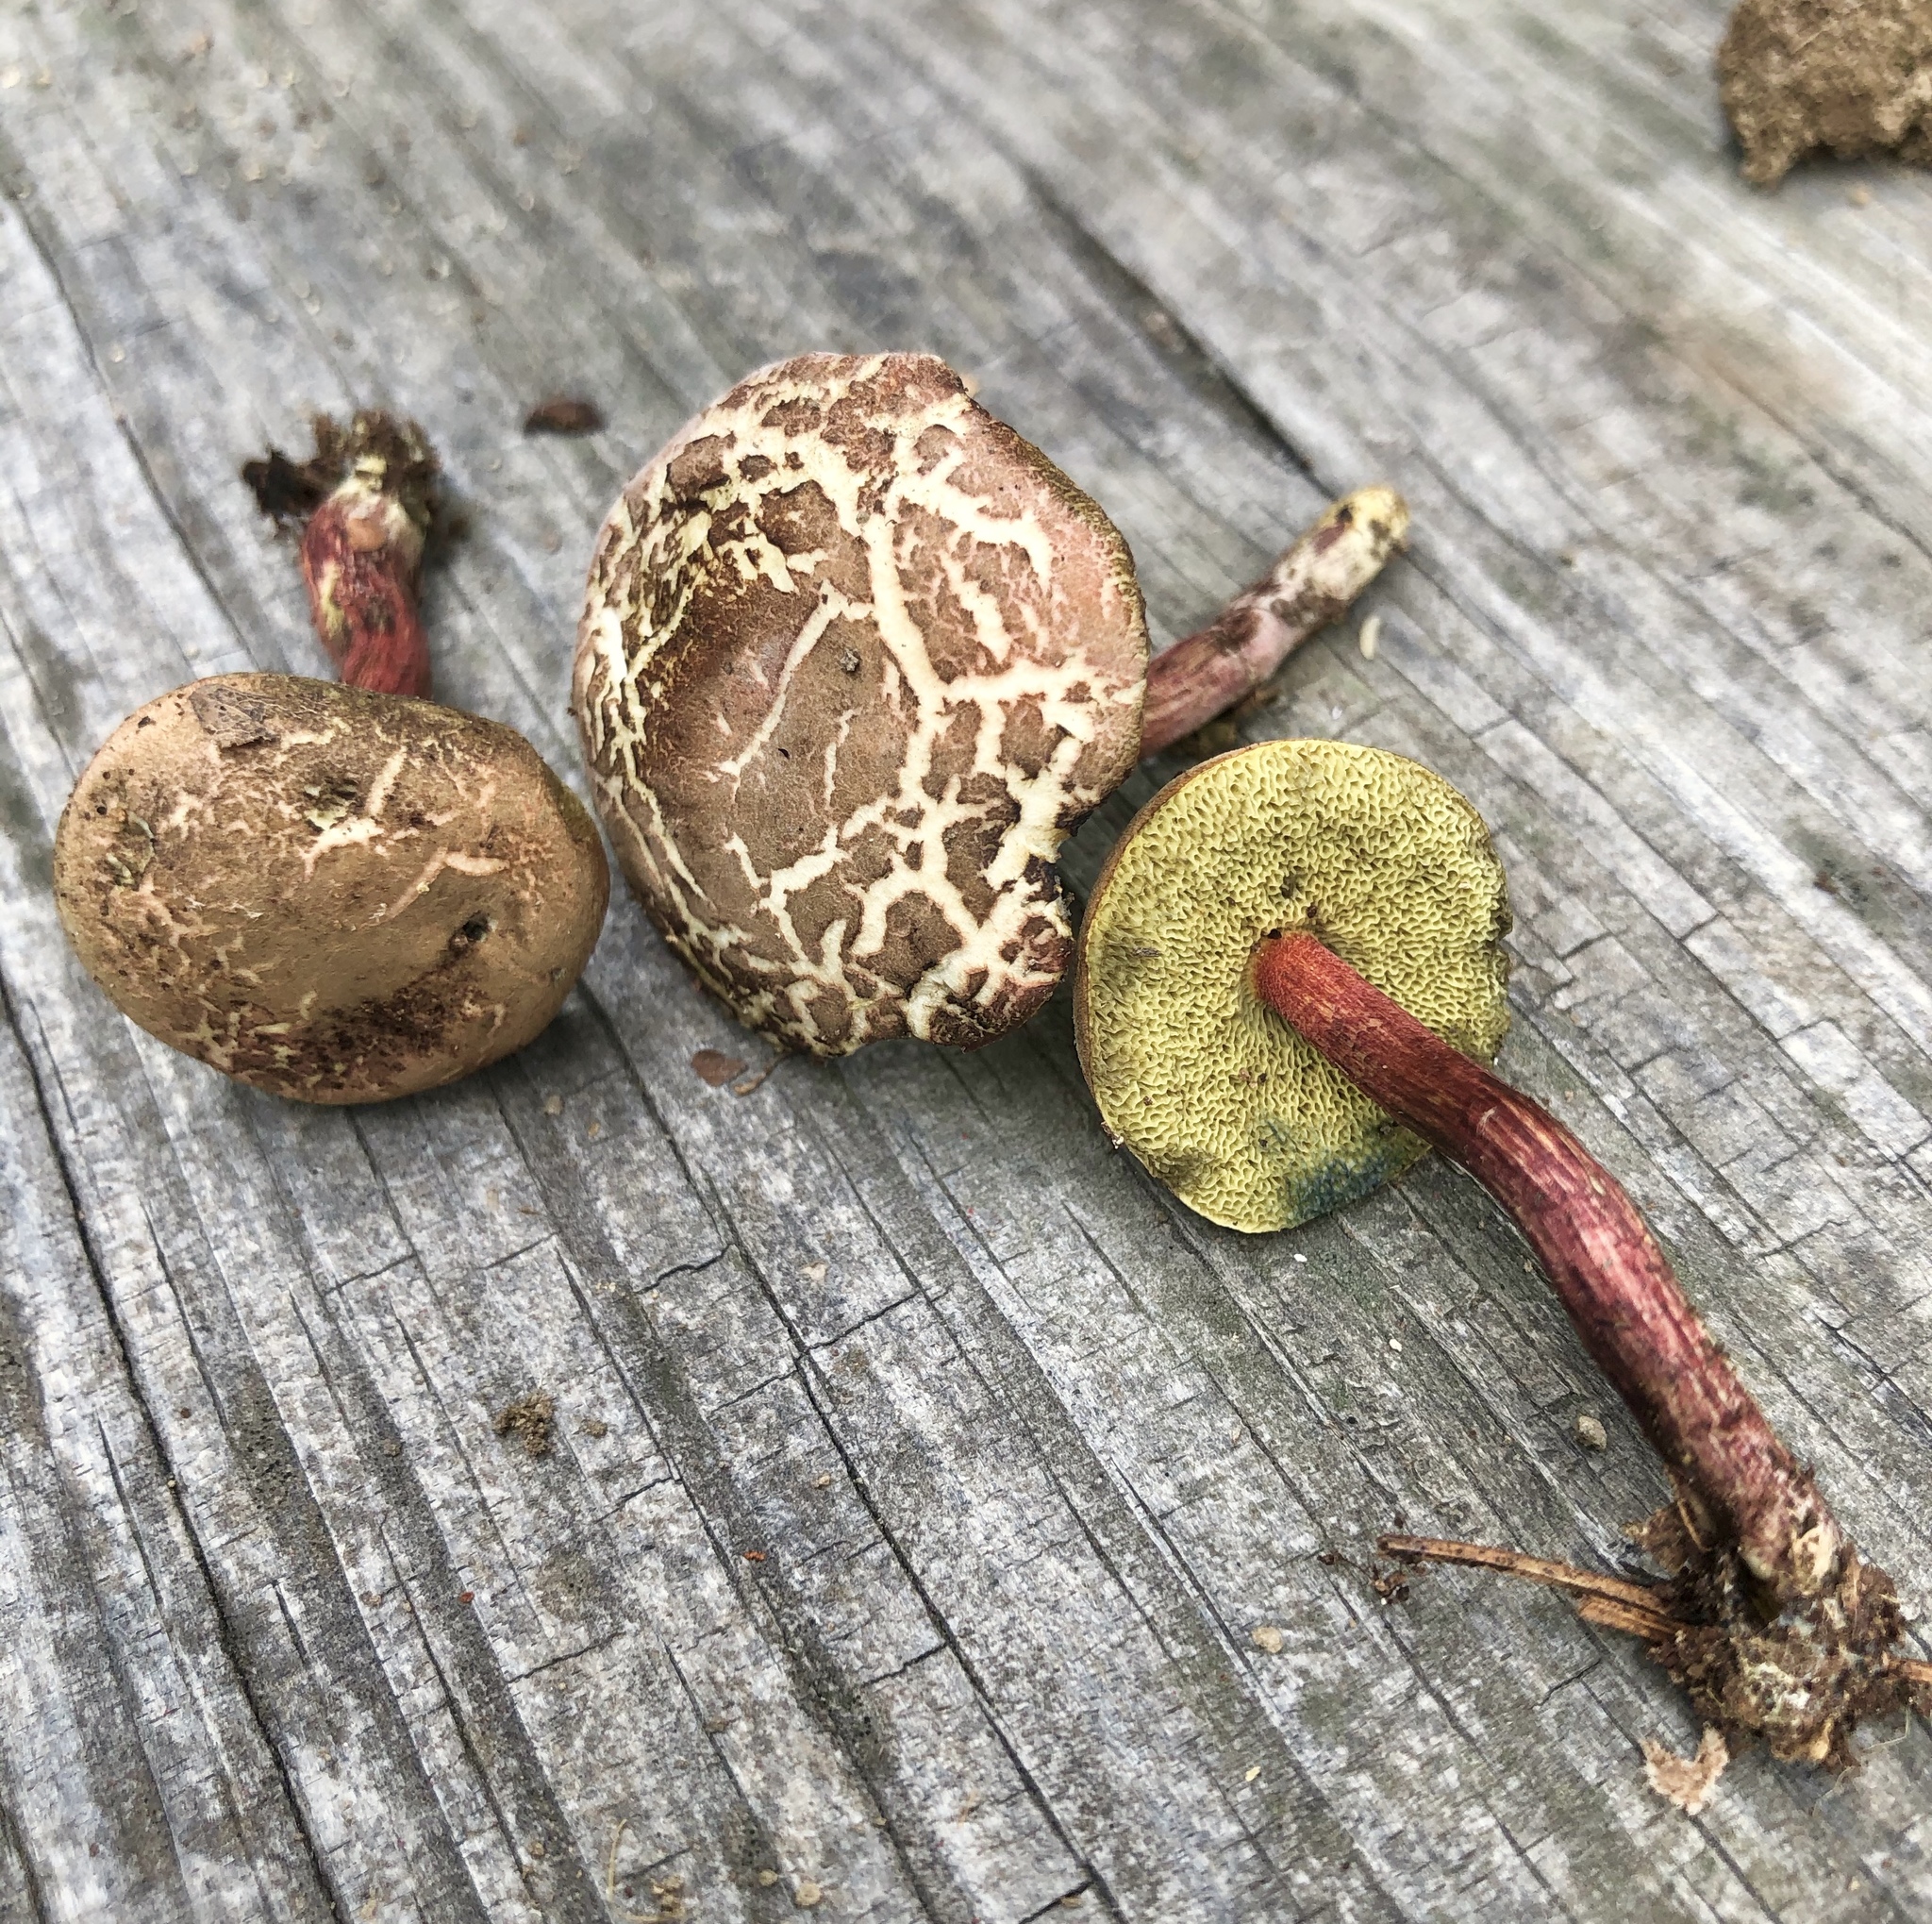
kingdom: Fungi
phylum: Basidiomycota
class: Agaricomycetes
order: Boletales
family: Boletaceae
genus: Xerocomellus
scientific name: Xerocomellus chrysenteron
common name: Red-cracking bolete
